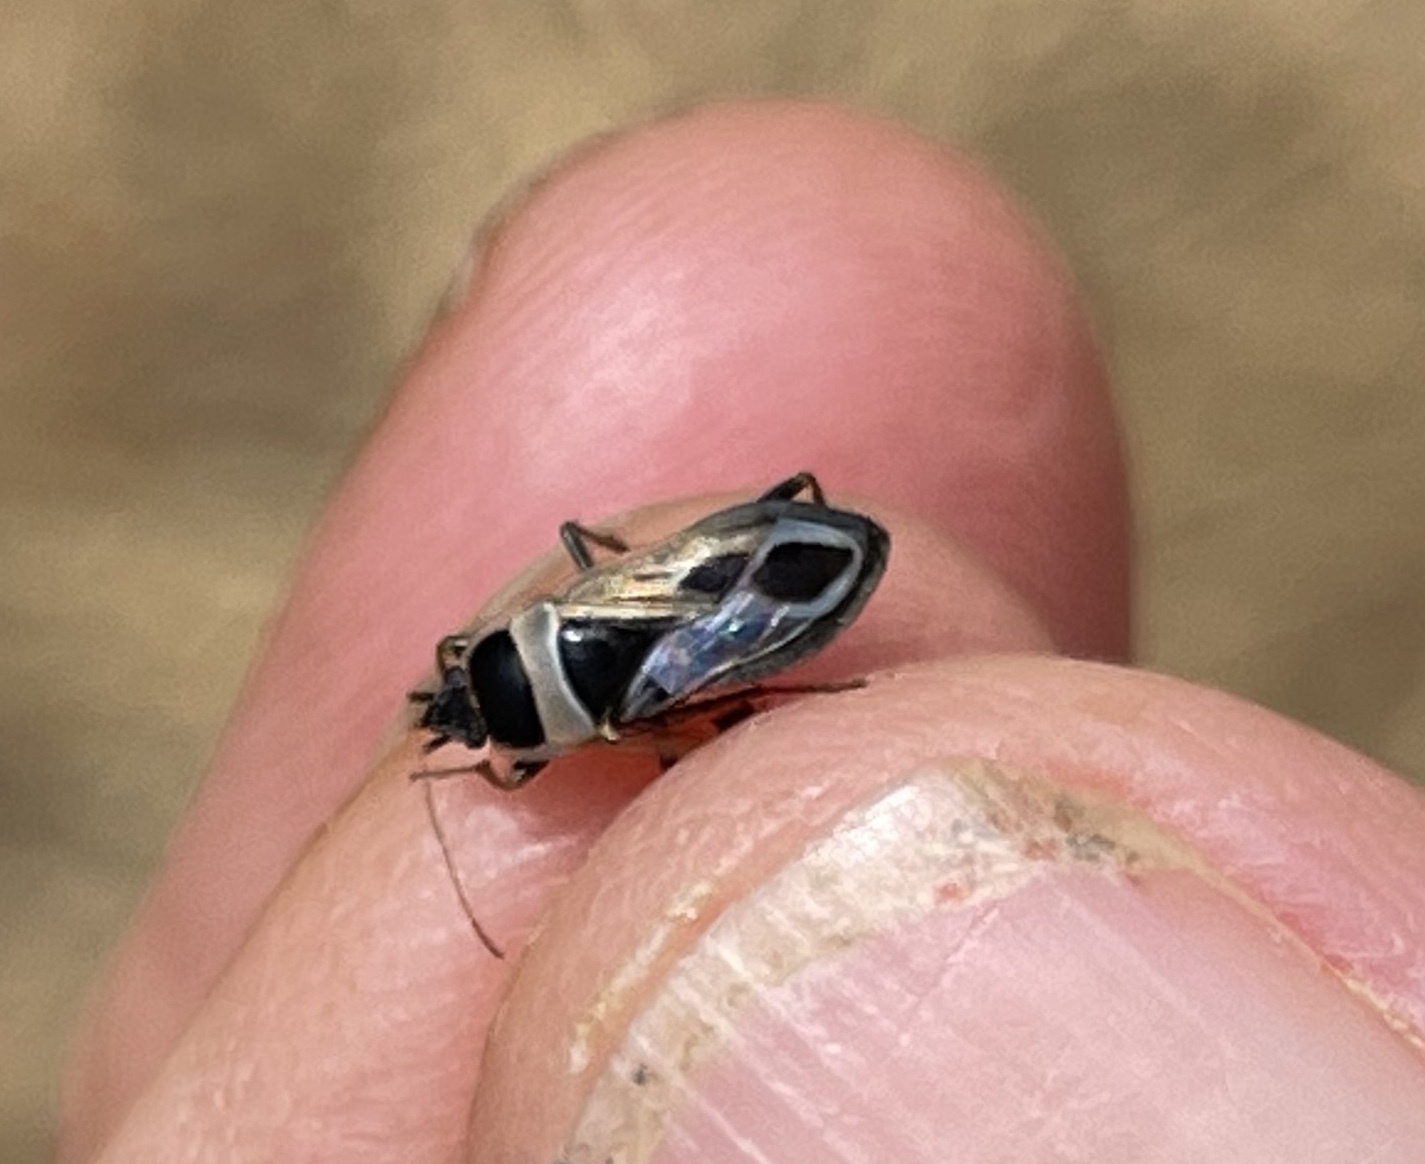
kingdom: Animalia
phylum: Arthropoda
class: Insecta
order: Hemiptera
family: Rhyparochromidae
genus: Xanthochilus
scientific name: Xanthochilus saturnius
